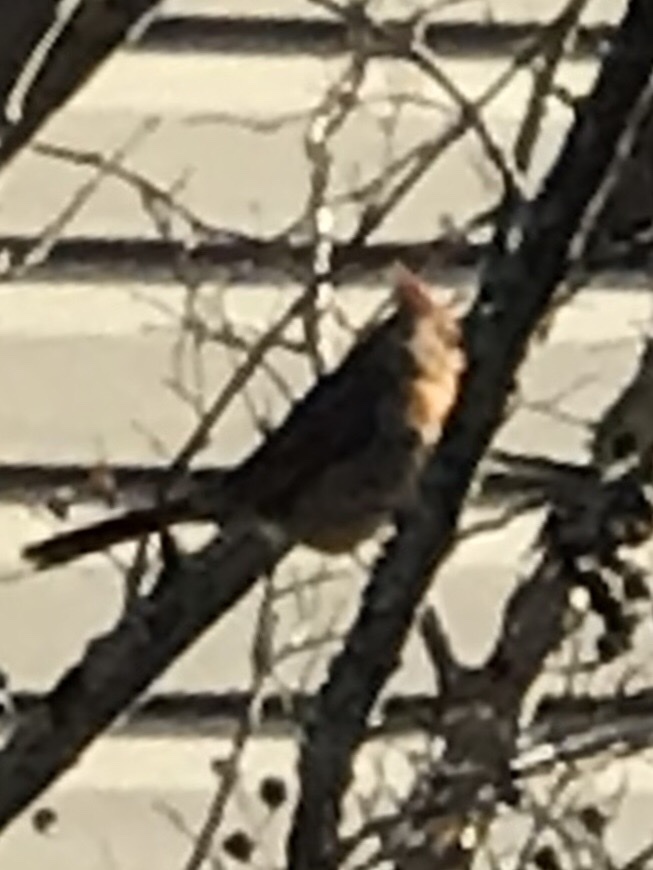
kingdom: Animalia
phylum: Chordata
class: Aves
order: Passeriformes
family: Cardinalidae
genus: Cardinalis
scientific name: Cardinalis cardinalis
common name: Northern cardinal
